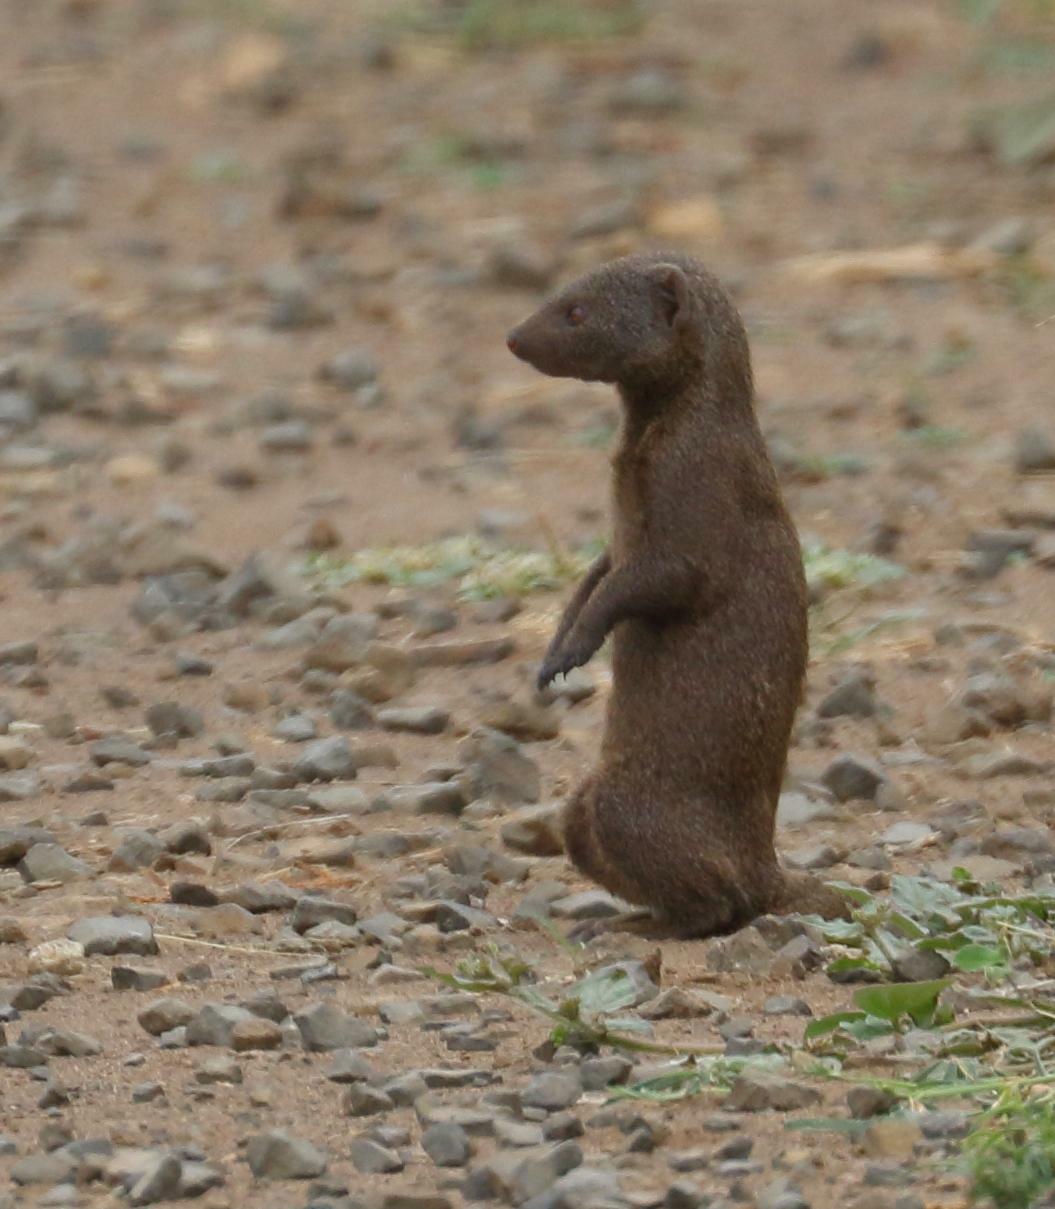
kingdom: Animalia
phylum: Chordata
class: Mammalia
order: Carnivora
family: Herpestidae
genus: Helogale
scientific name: Helogale parvula
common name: Common dwarf mongoose
